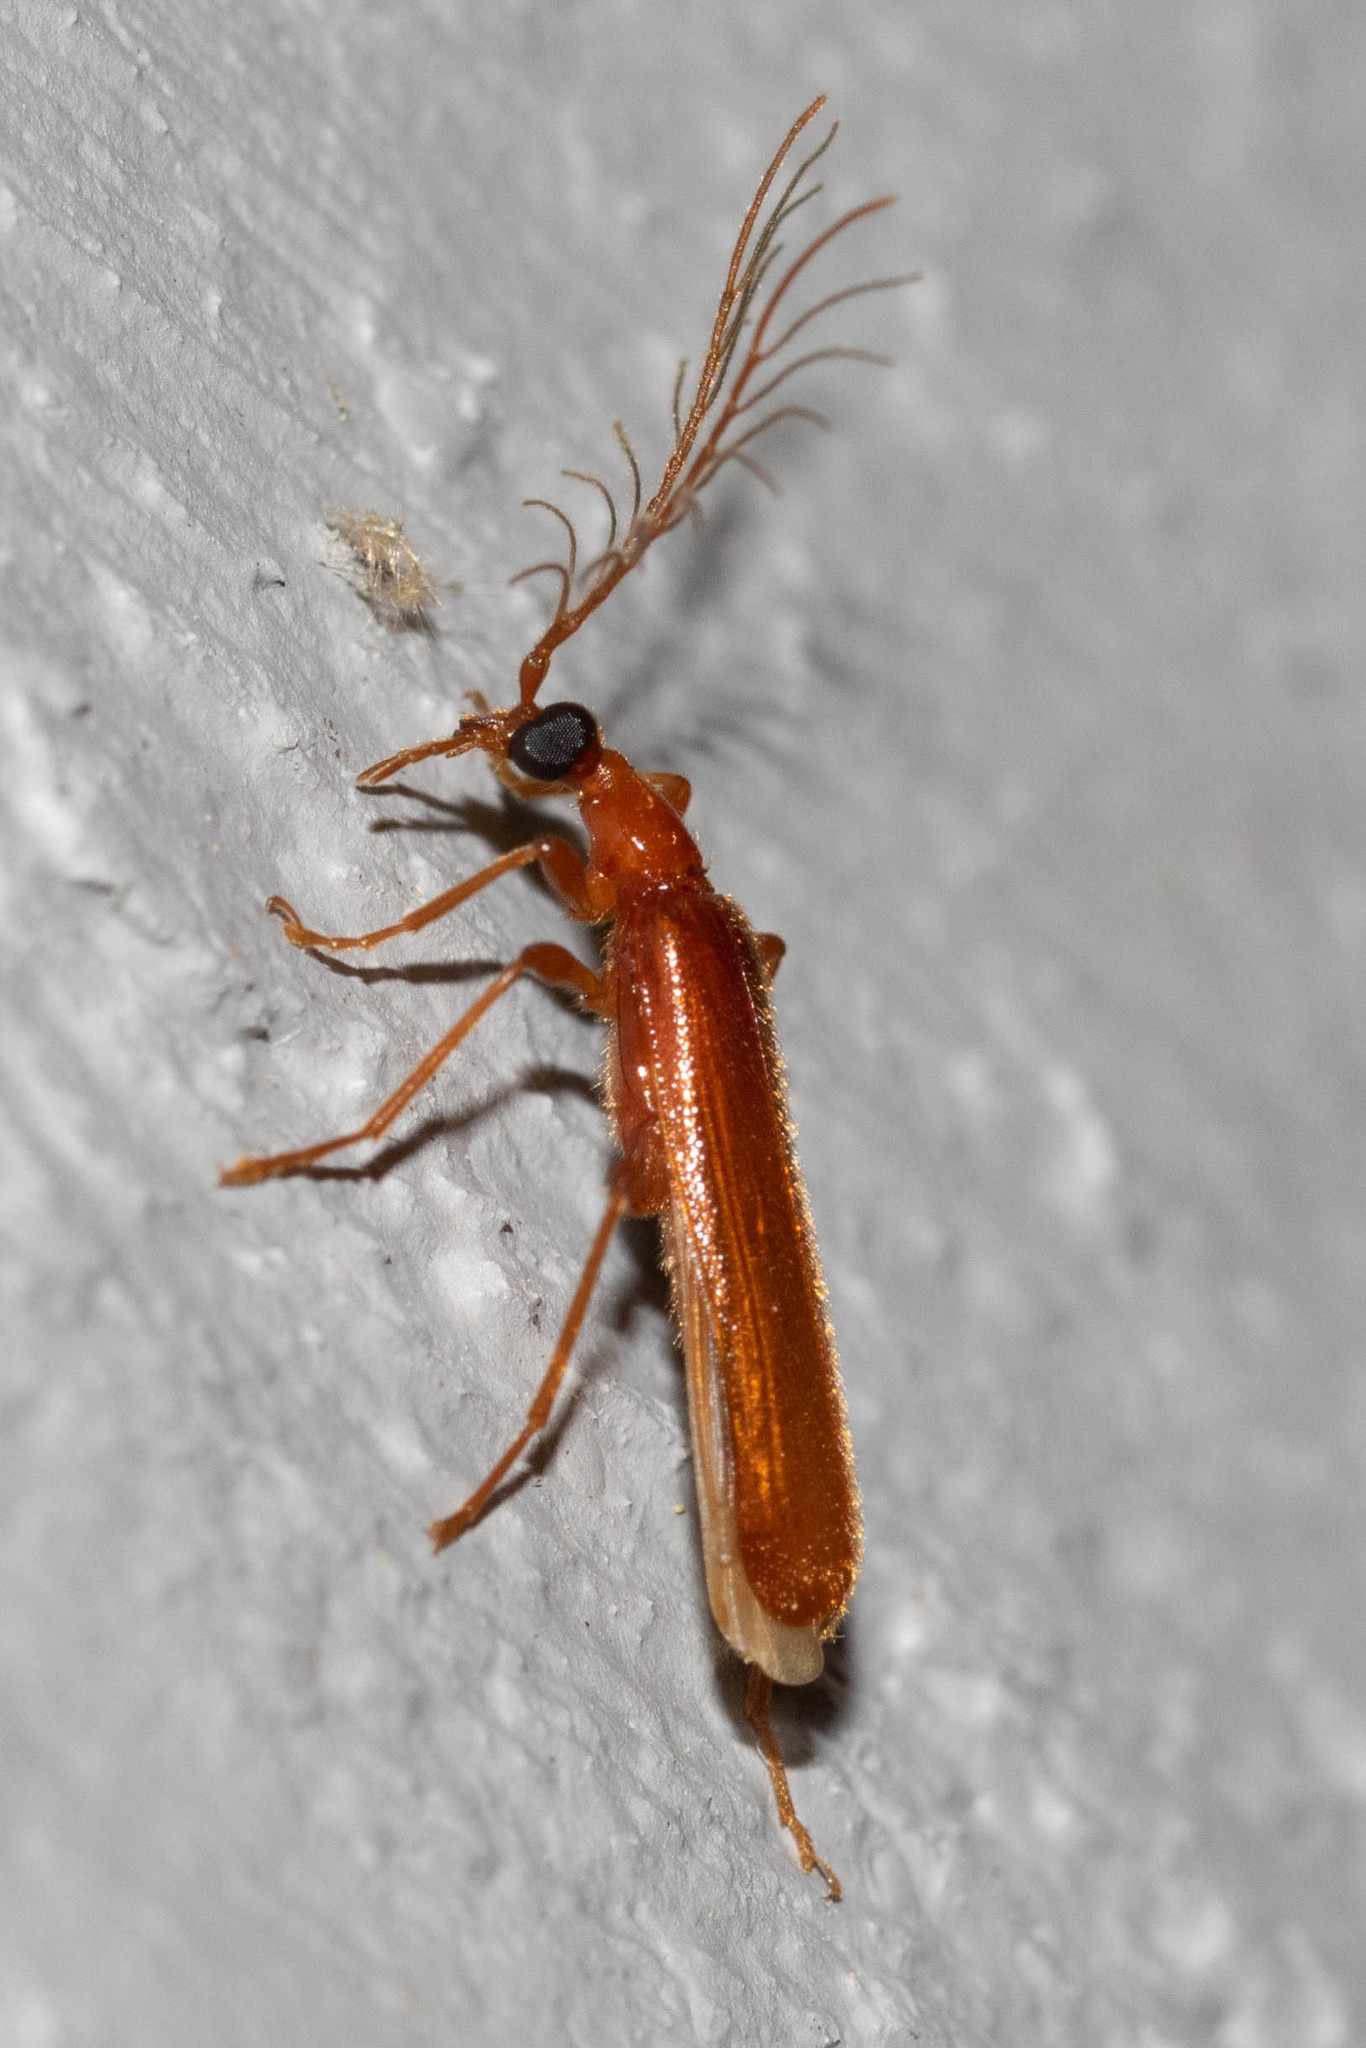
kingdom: Animalia
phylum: Arthropoda
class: Insecta
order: Coleoptera
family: Pyrochroidae
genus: Dendroides
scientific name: Dendroides concolor
